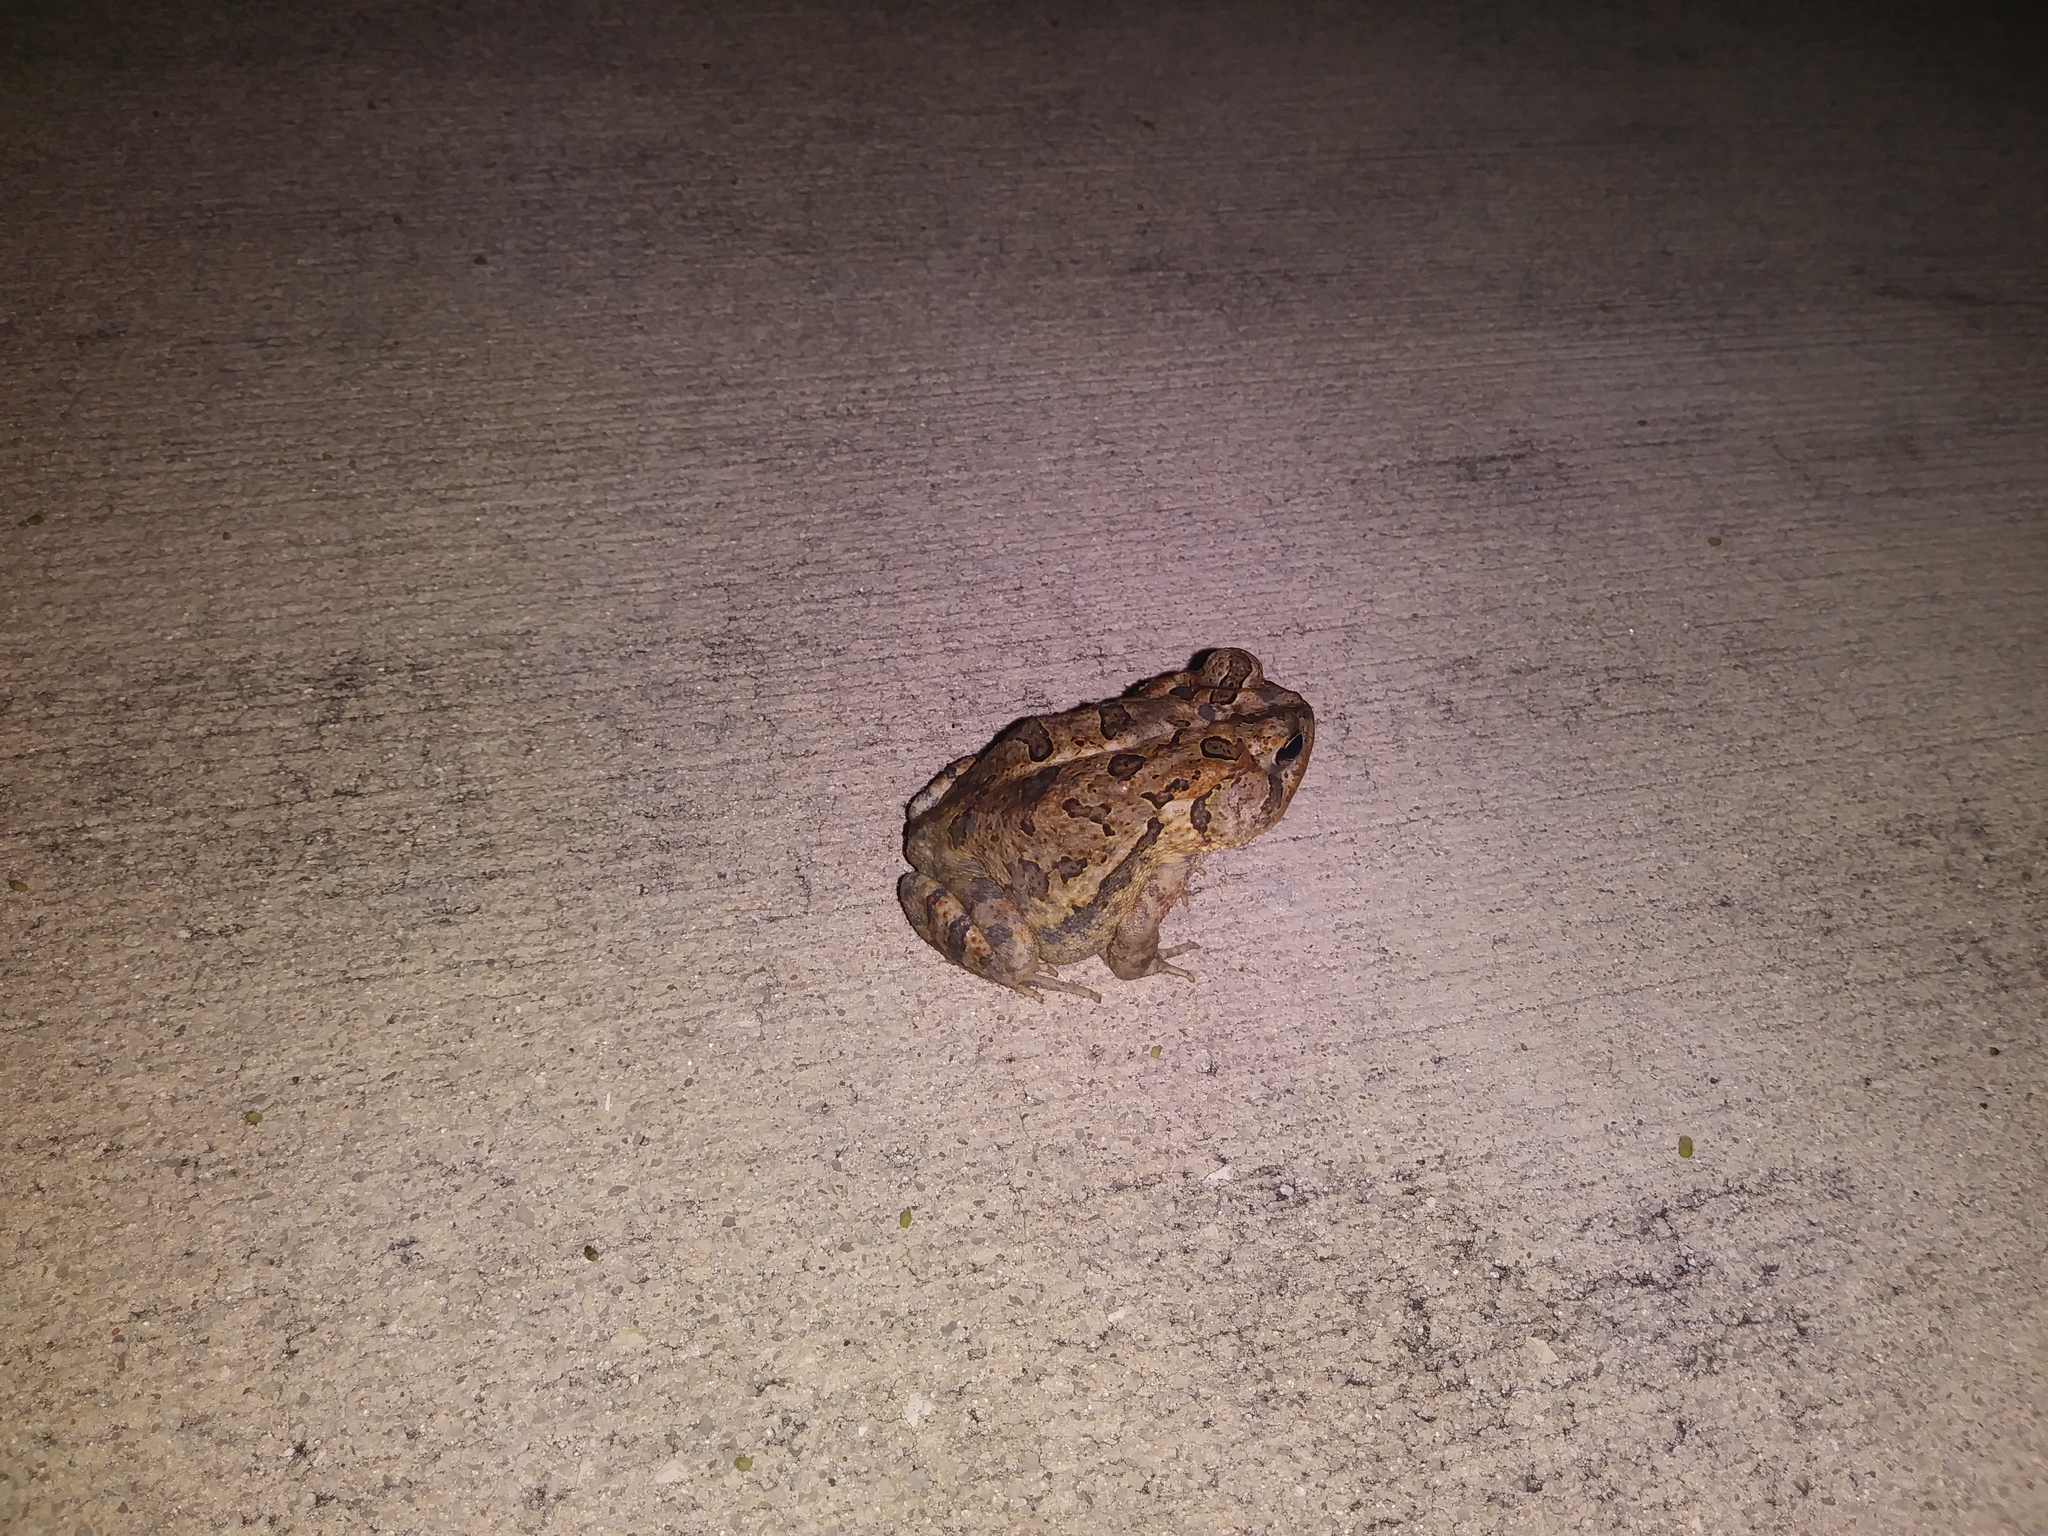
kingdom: Animalia
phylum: Chordata
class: Amphibia
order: Anura
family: Bufonidae
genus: Anaxyrus
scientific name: Anaxyrus terrestris
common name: Southern toad
